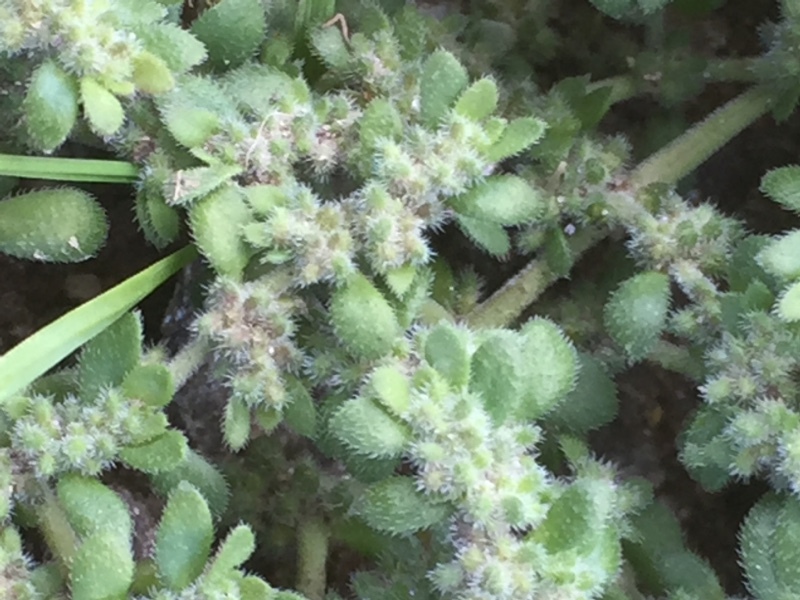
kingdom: Plantae
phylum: Tracheophyta
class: Magnoliopsida
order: Caryophyllales
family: Caryophyllaceae
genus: Herniaria
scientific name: Herniaria cinerea
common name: Hairy rupturewort
